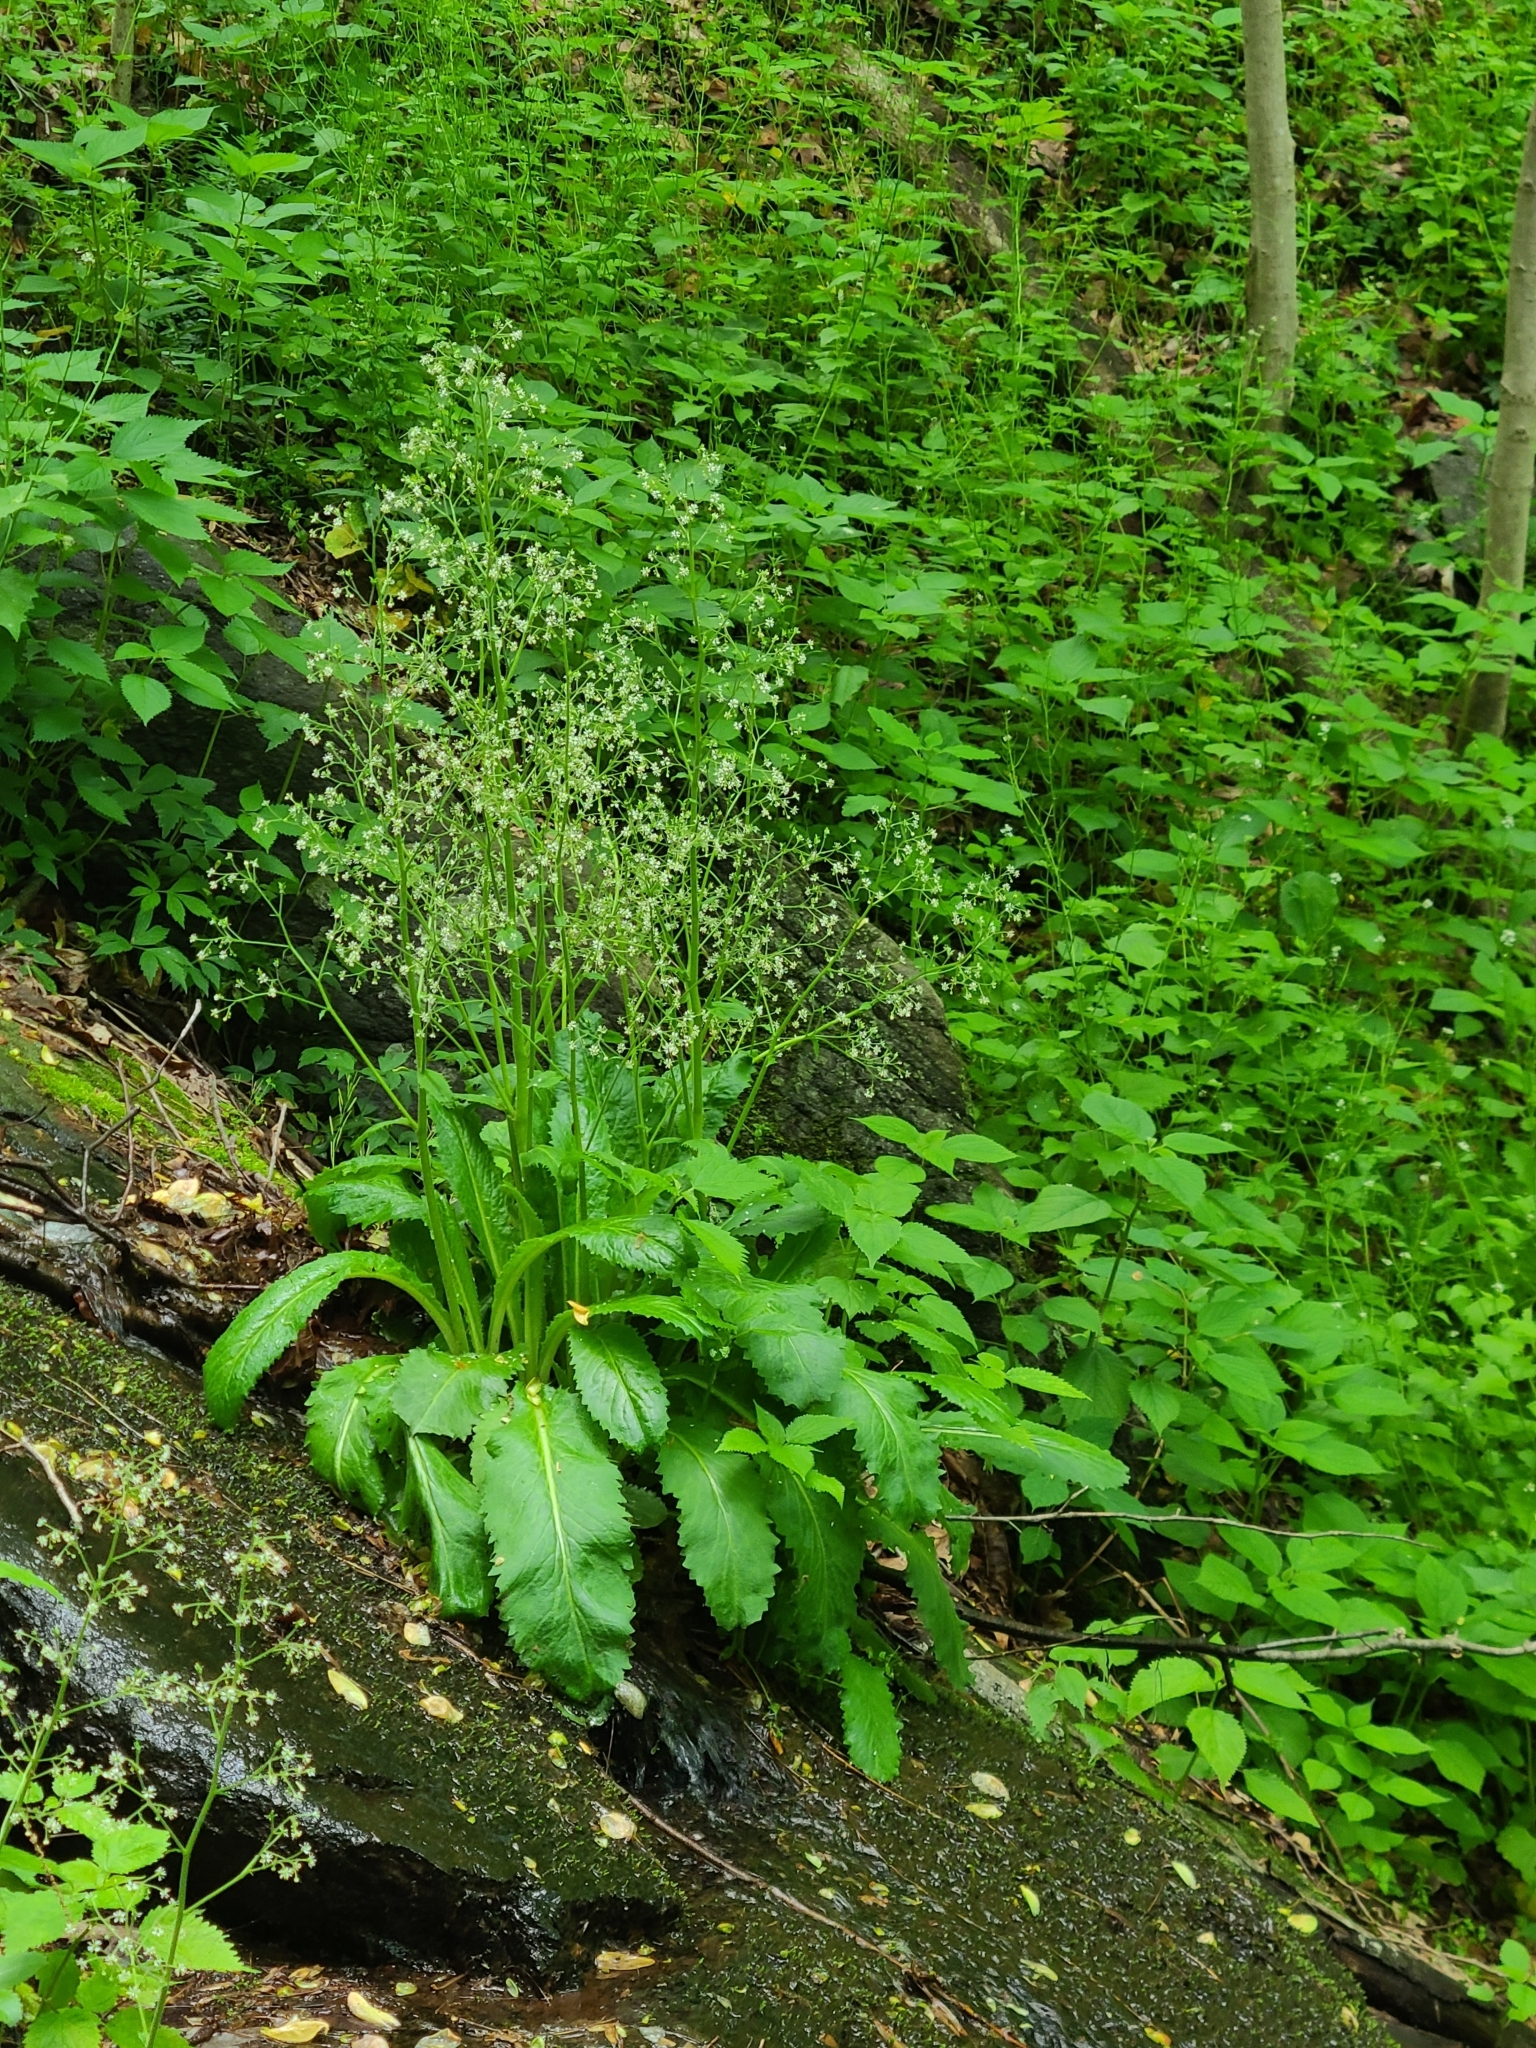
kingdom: Plantae
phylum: Tracheophyta
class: Magnoliopsida
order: Saxifragales
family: Saxifragaceae
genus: Micranthes
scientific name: Micranthes micranthidifolia
